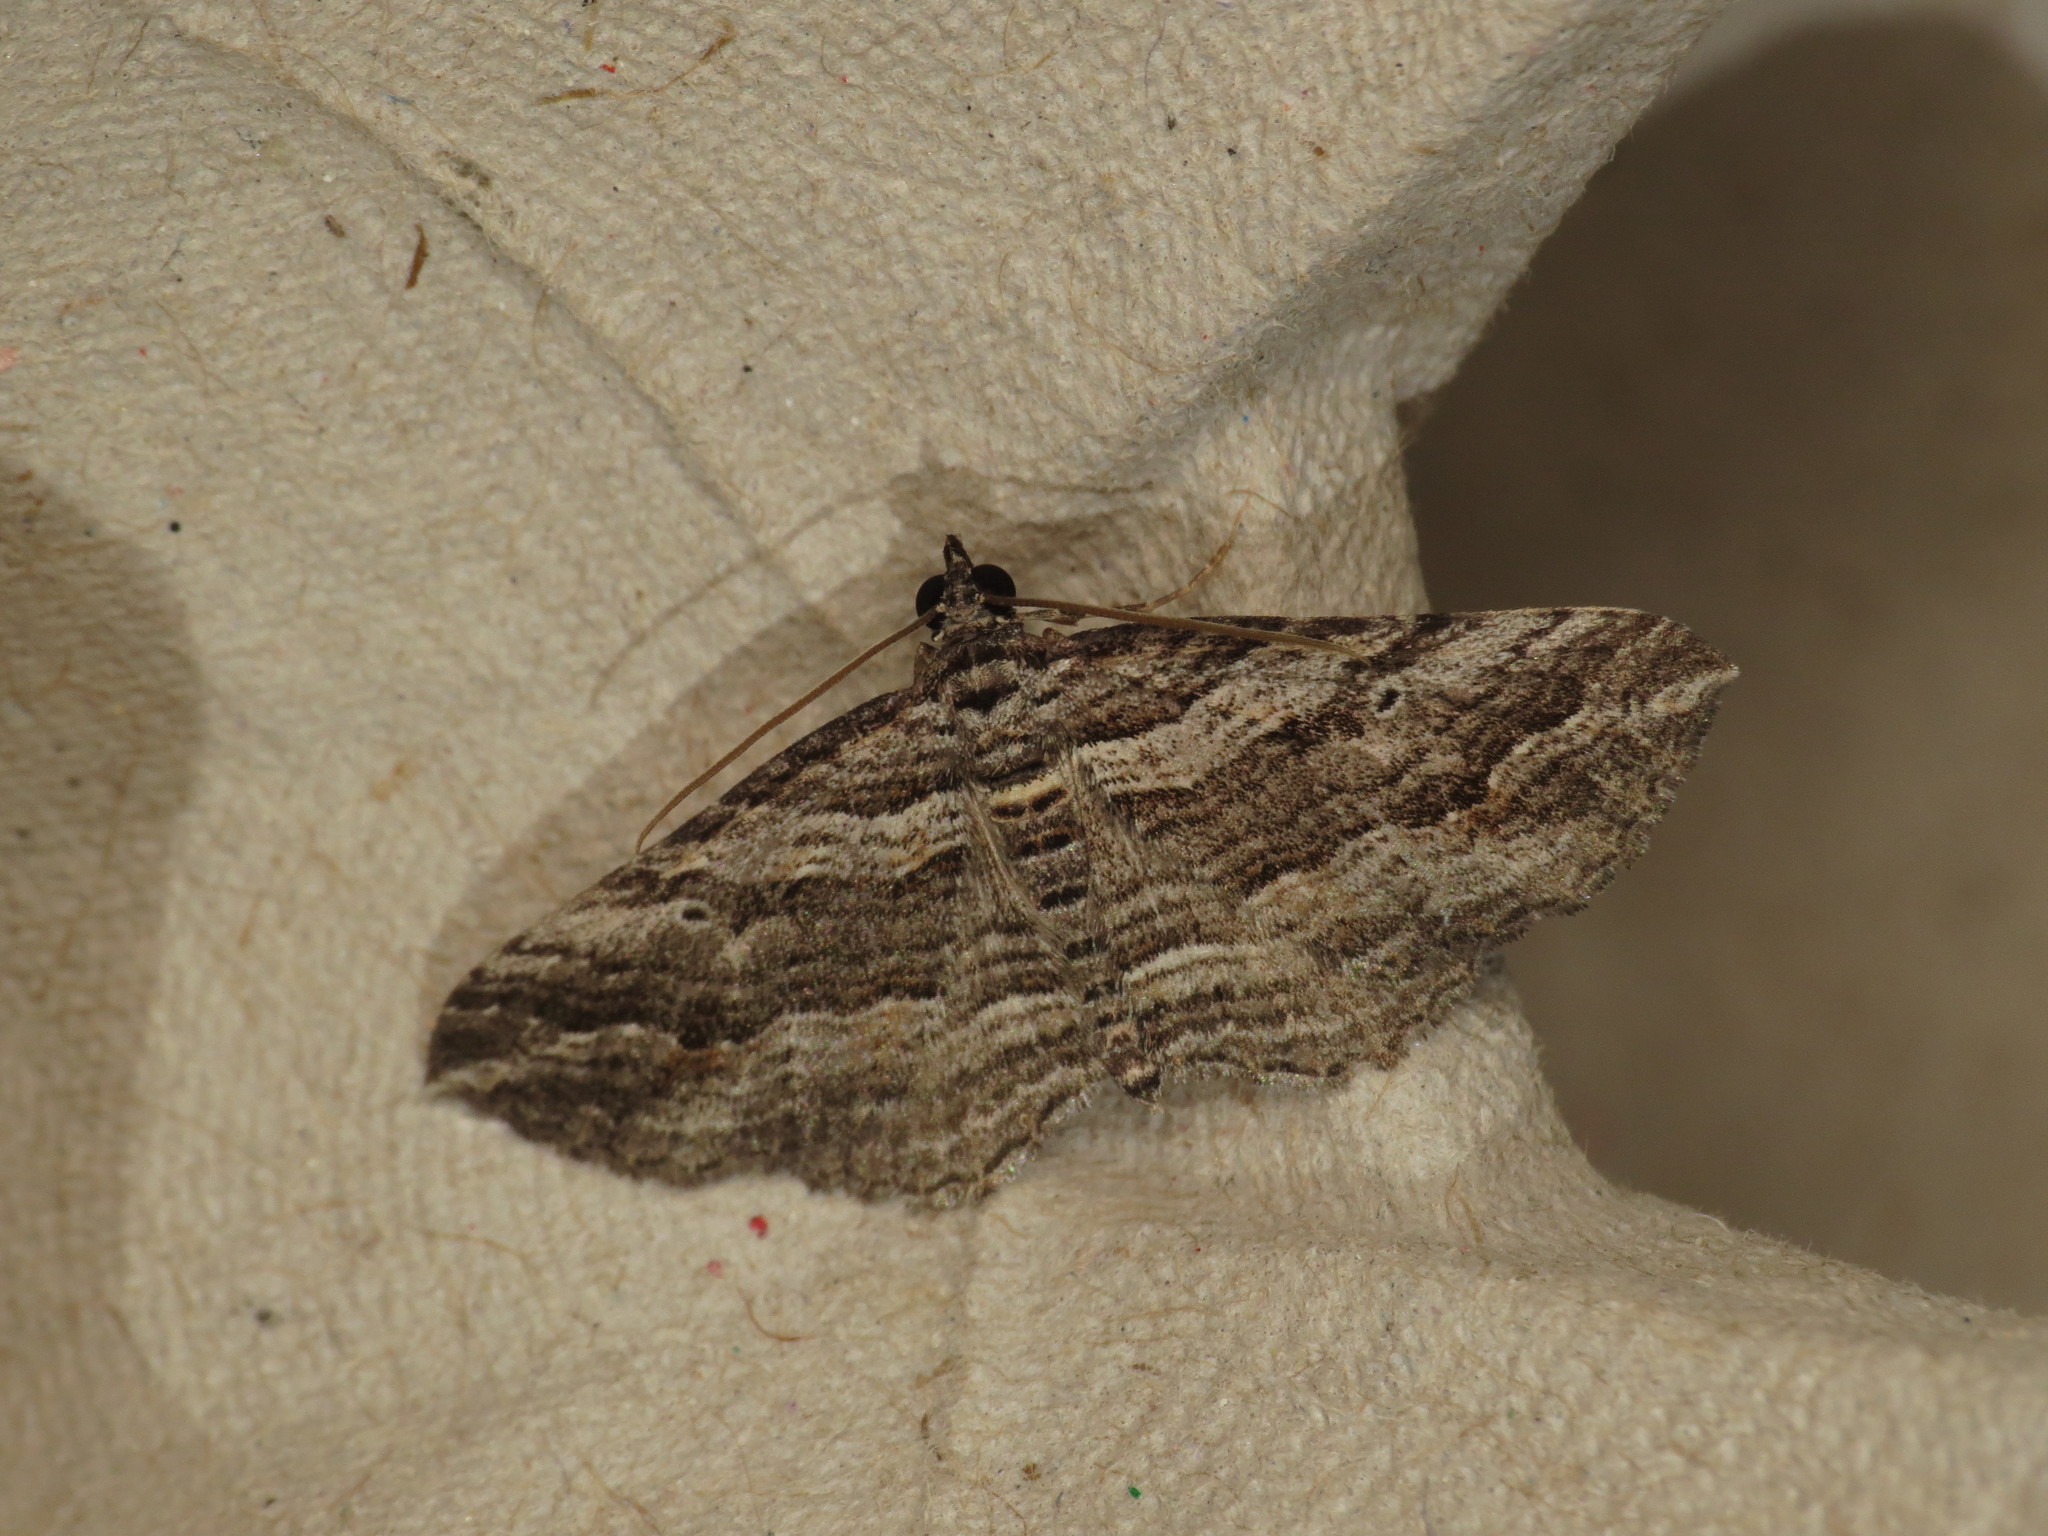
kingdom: Animalia
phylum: Arthropoda
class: Insecta
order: Lepidoptera
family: Geometridae
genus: Chrysolarentia
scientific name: Chrysolarentia severata
